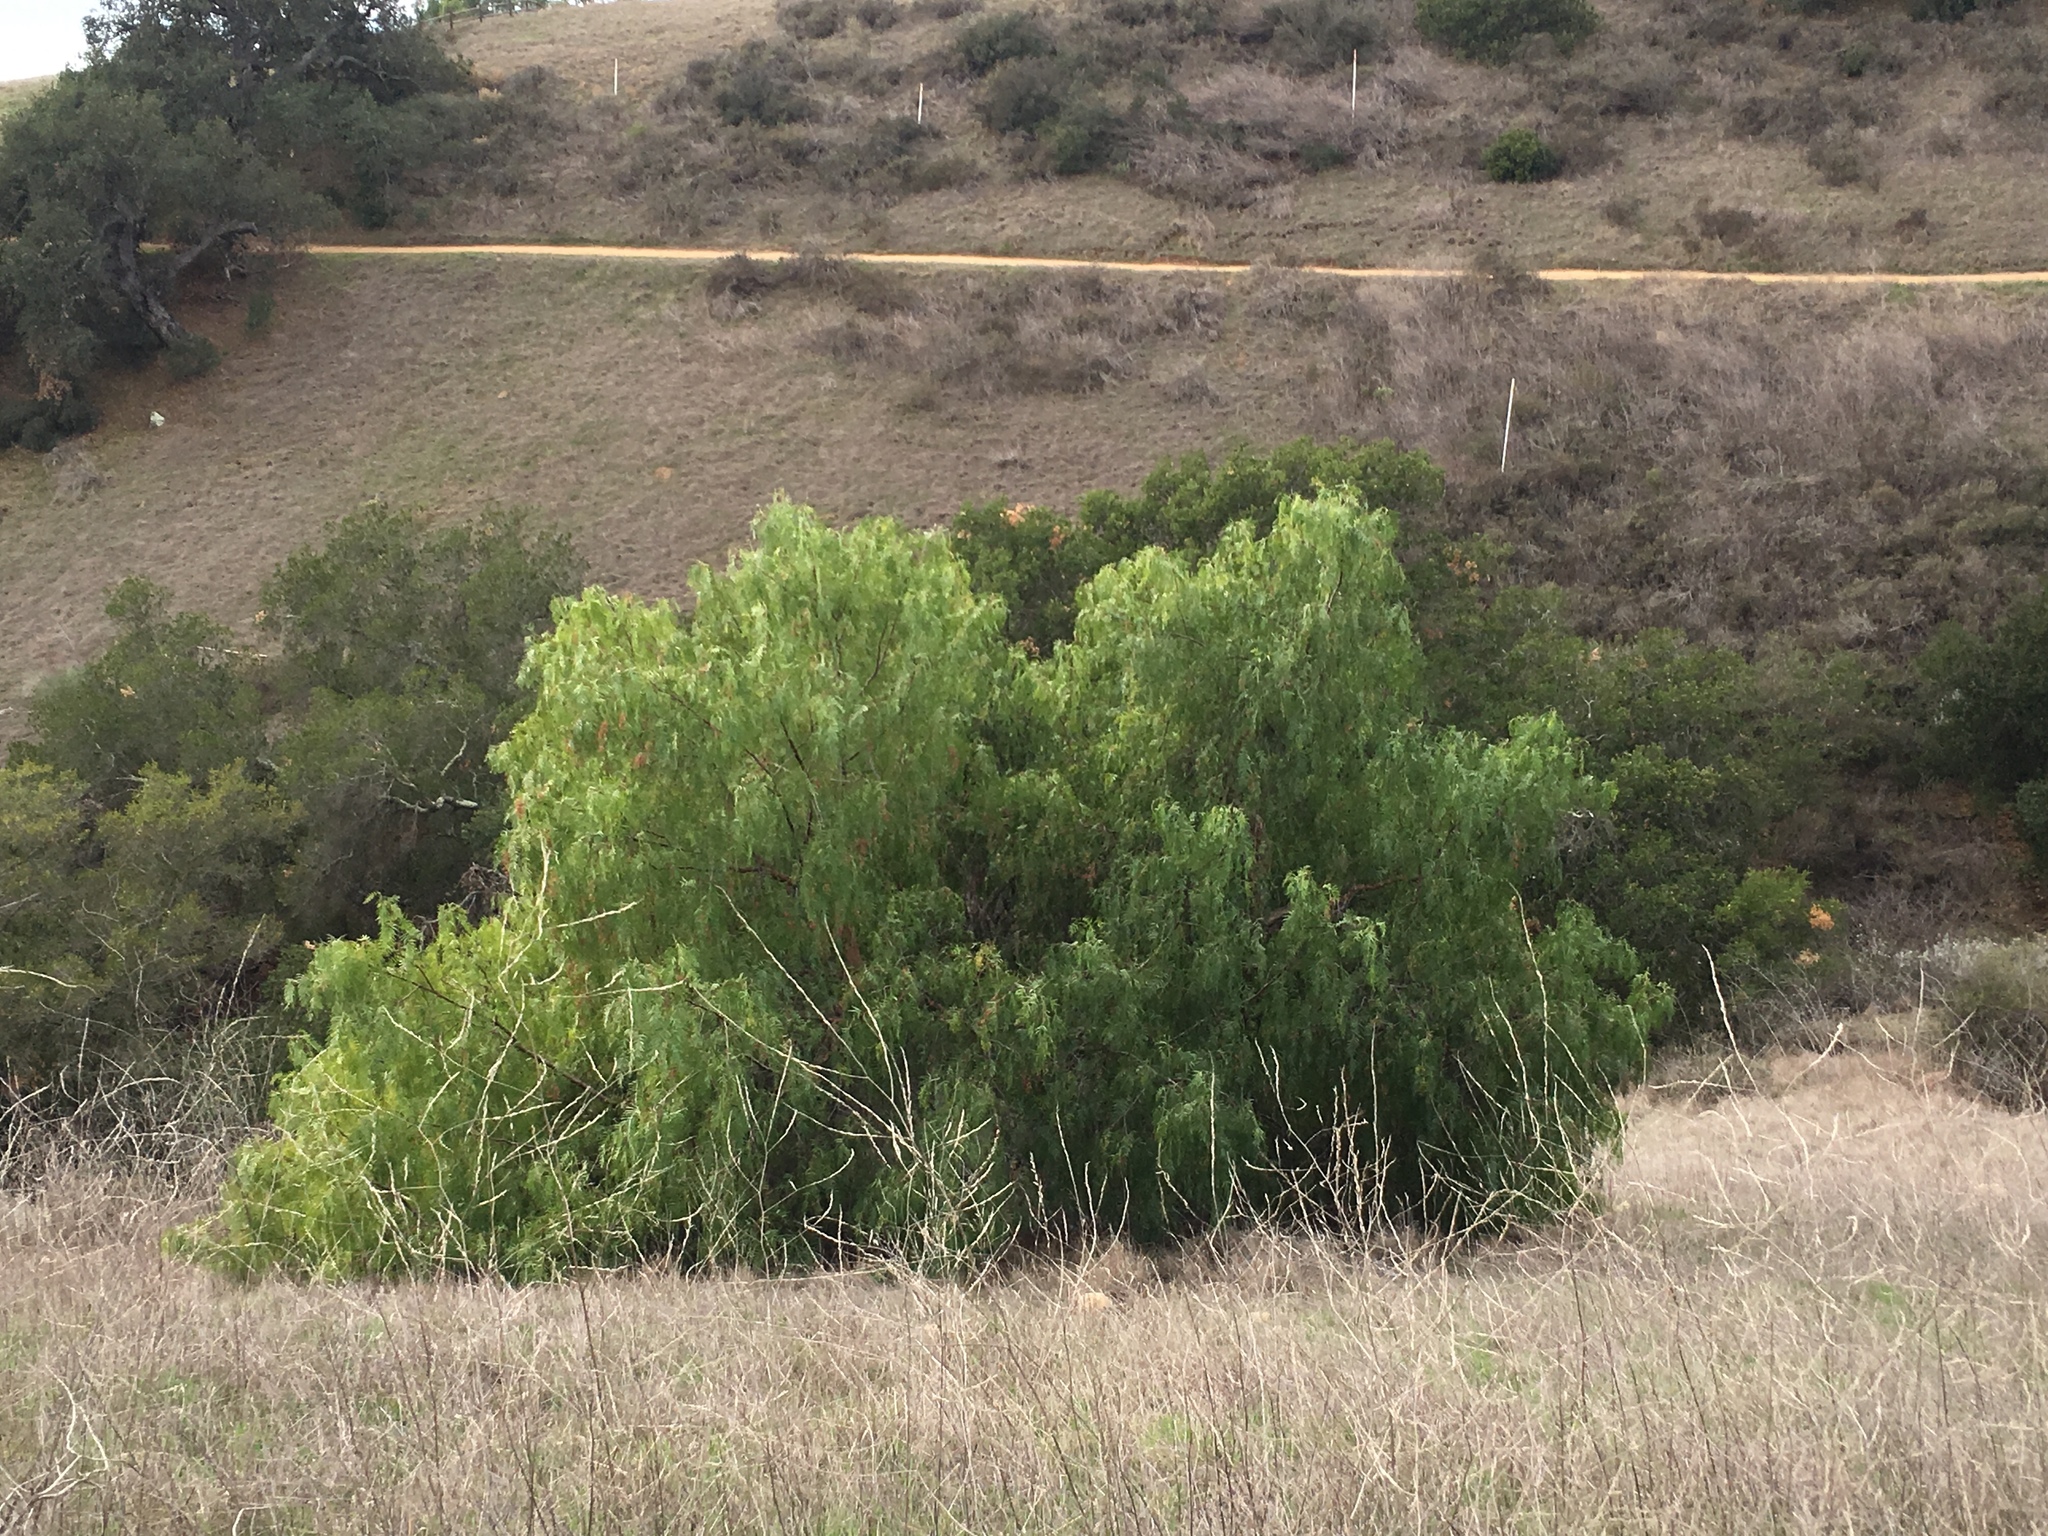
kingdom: Plantae
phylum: Tracheophyta
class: Magnoliopsida
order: Sapindales
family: Anacardiaceae
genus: Schinus
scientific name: Schinus molle
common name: Peruvian peppertree
